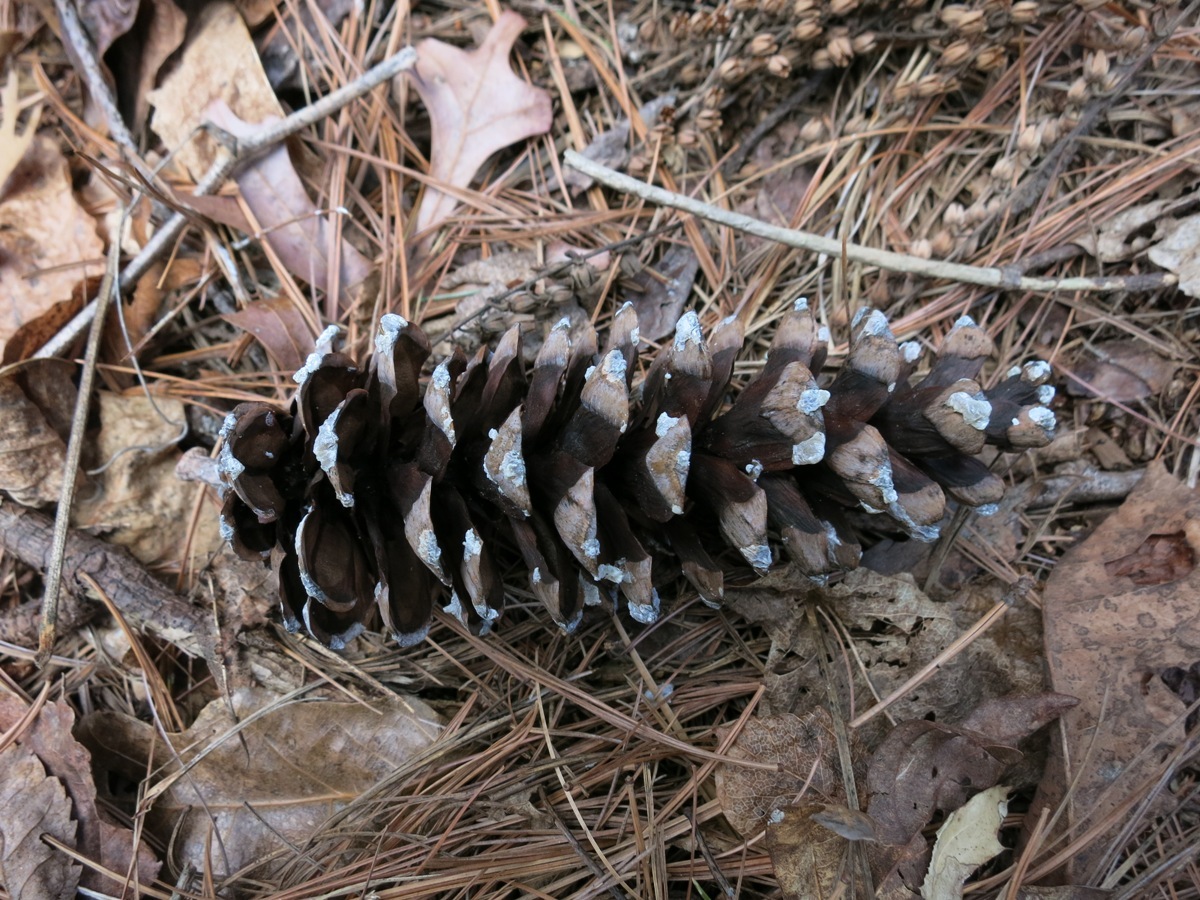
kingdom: Plantae
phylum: Tracheophyta
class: Pinopsida
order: Pinales
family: Pinaceae
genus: Pinus
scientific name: Pinus strobus
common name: Weymouth pine
